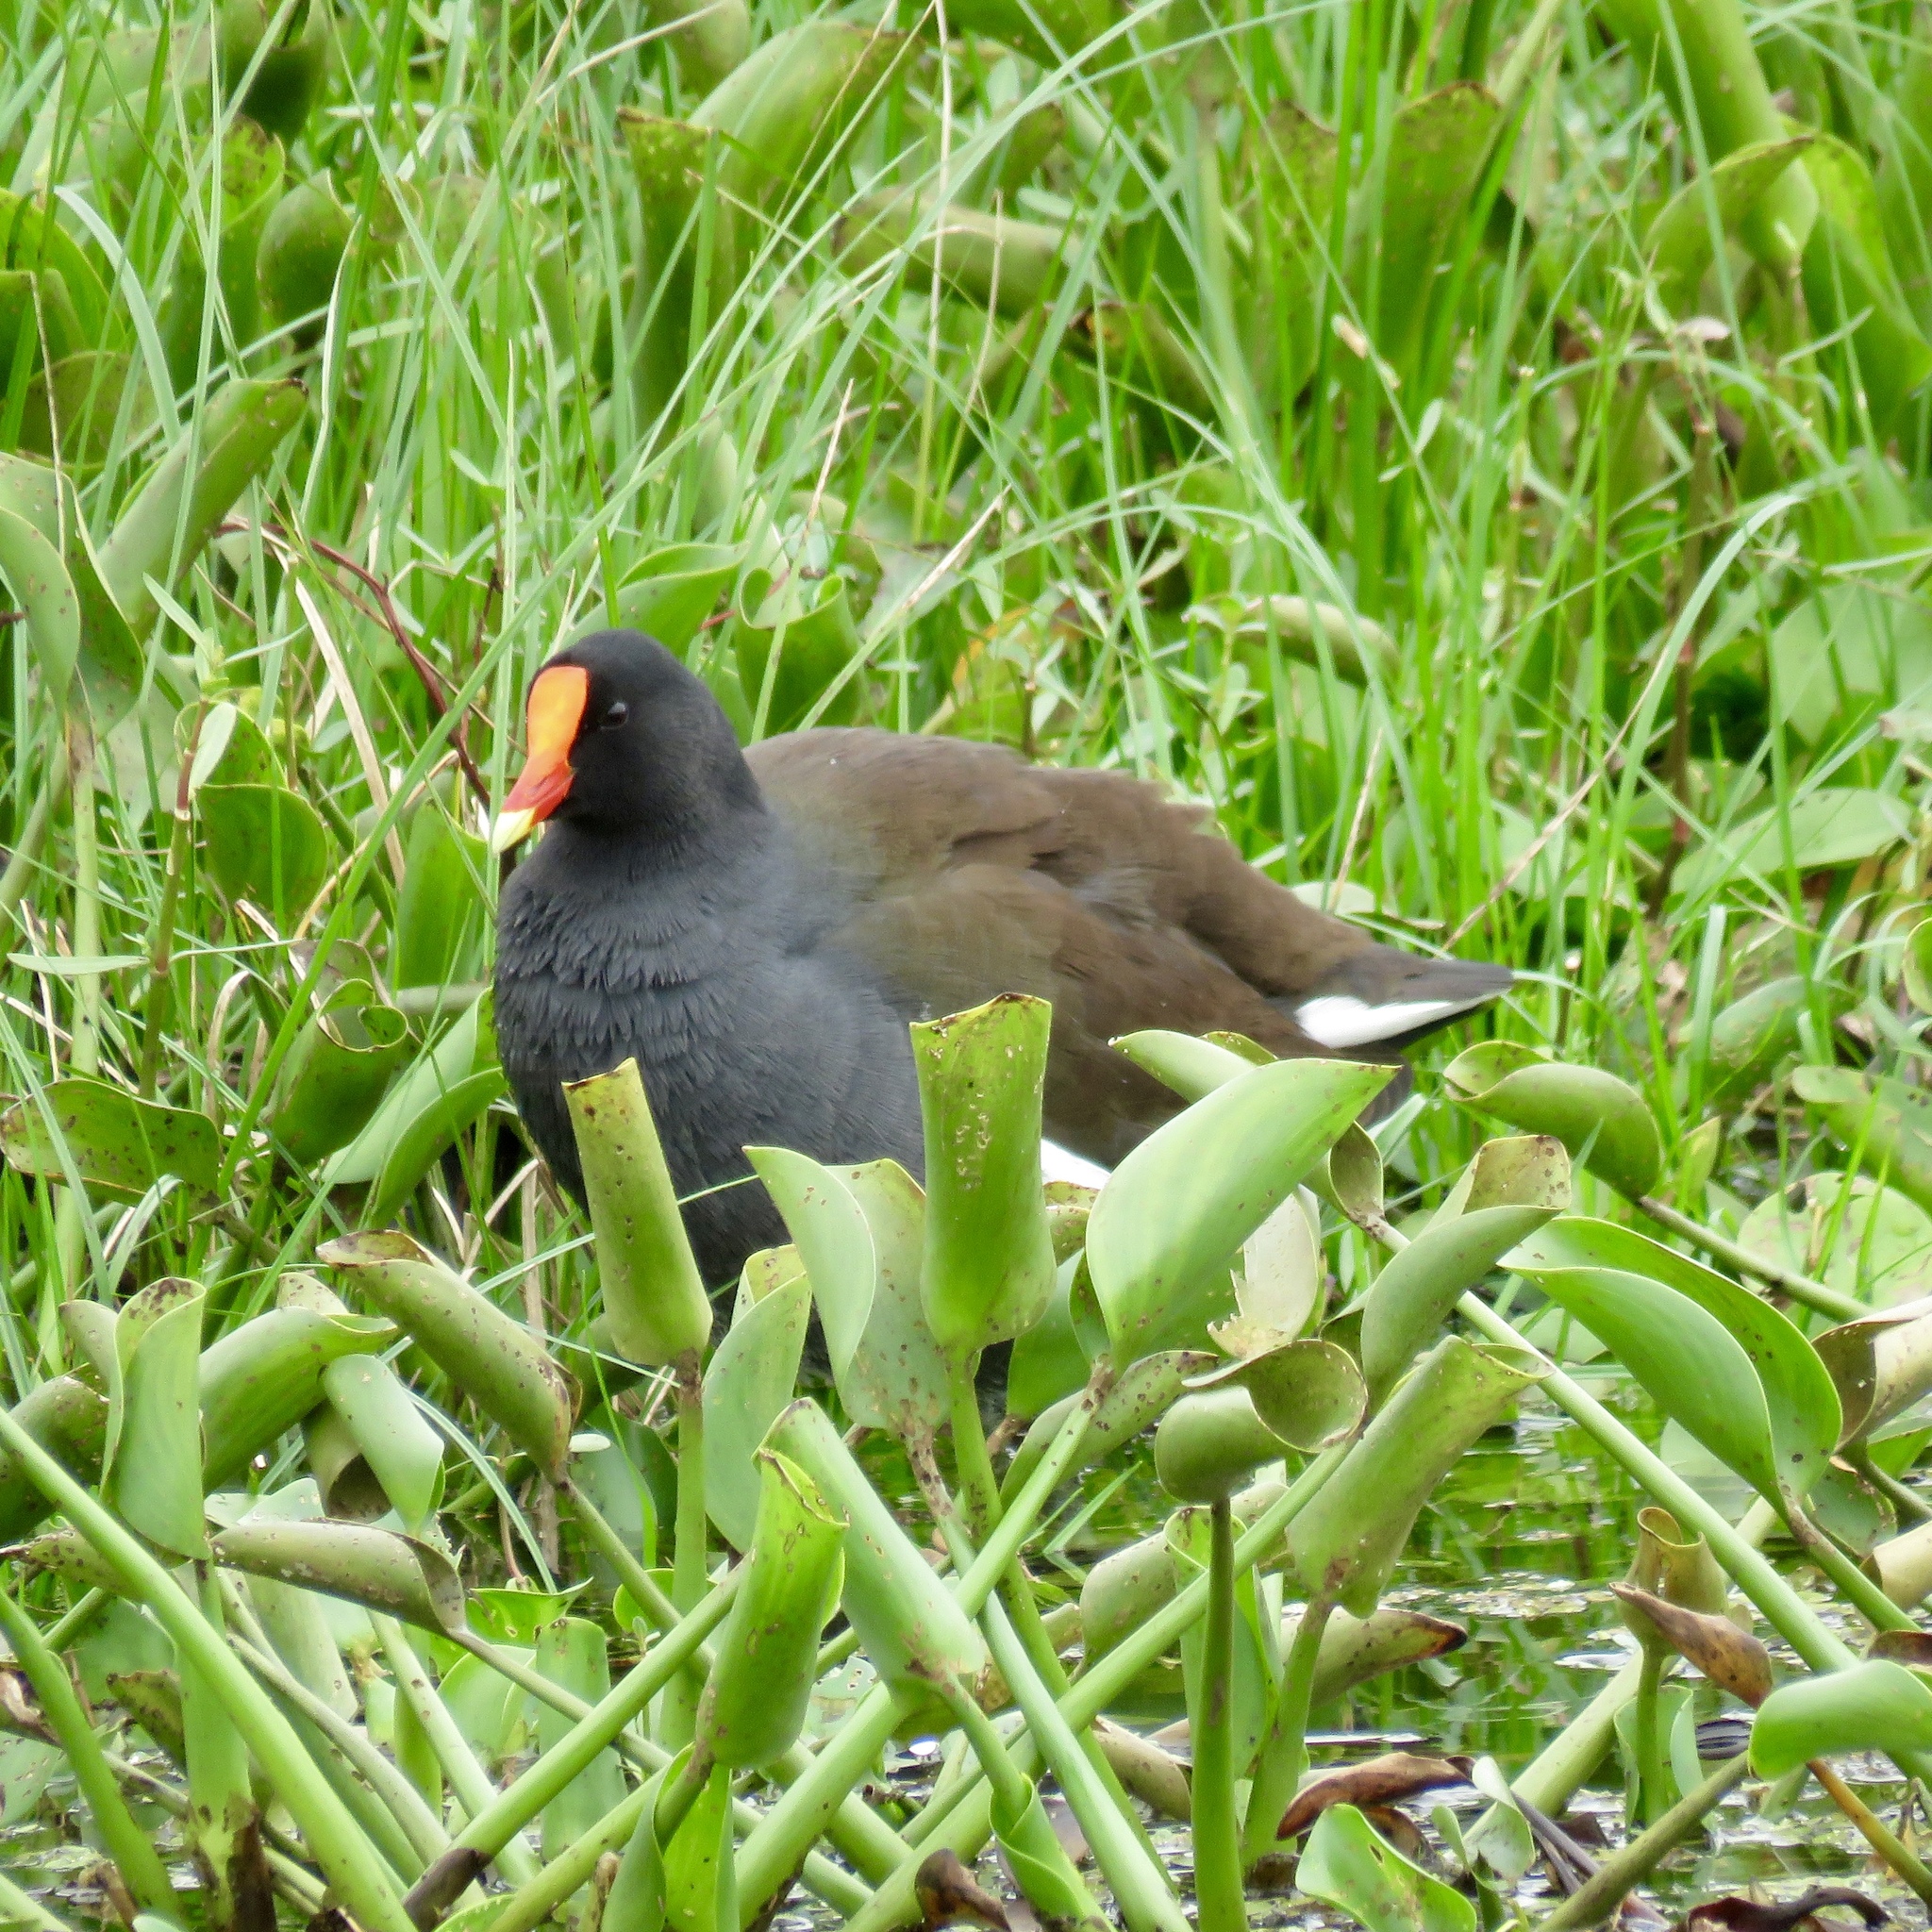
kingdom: Animalia
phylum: Chordata
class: Aves
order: Gruiformes
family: Rallidae
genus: Gallinula
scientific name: Gallinula chloropus
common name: Common moorhen
